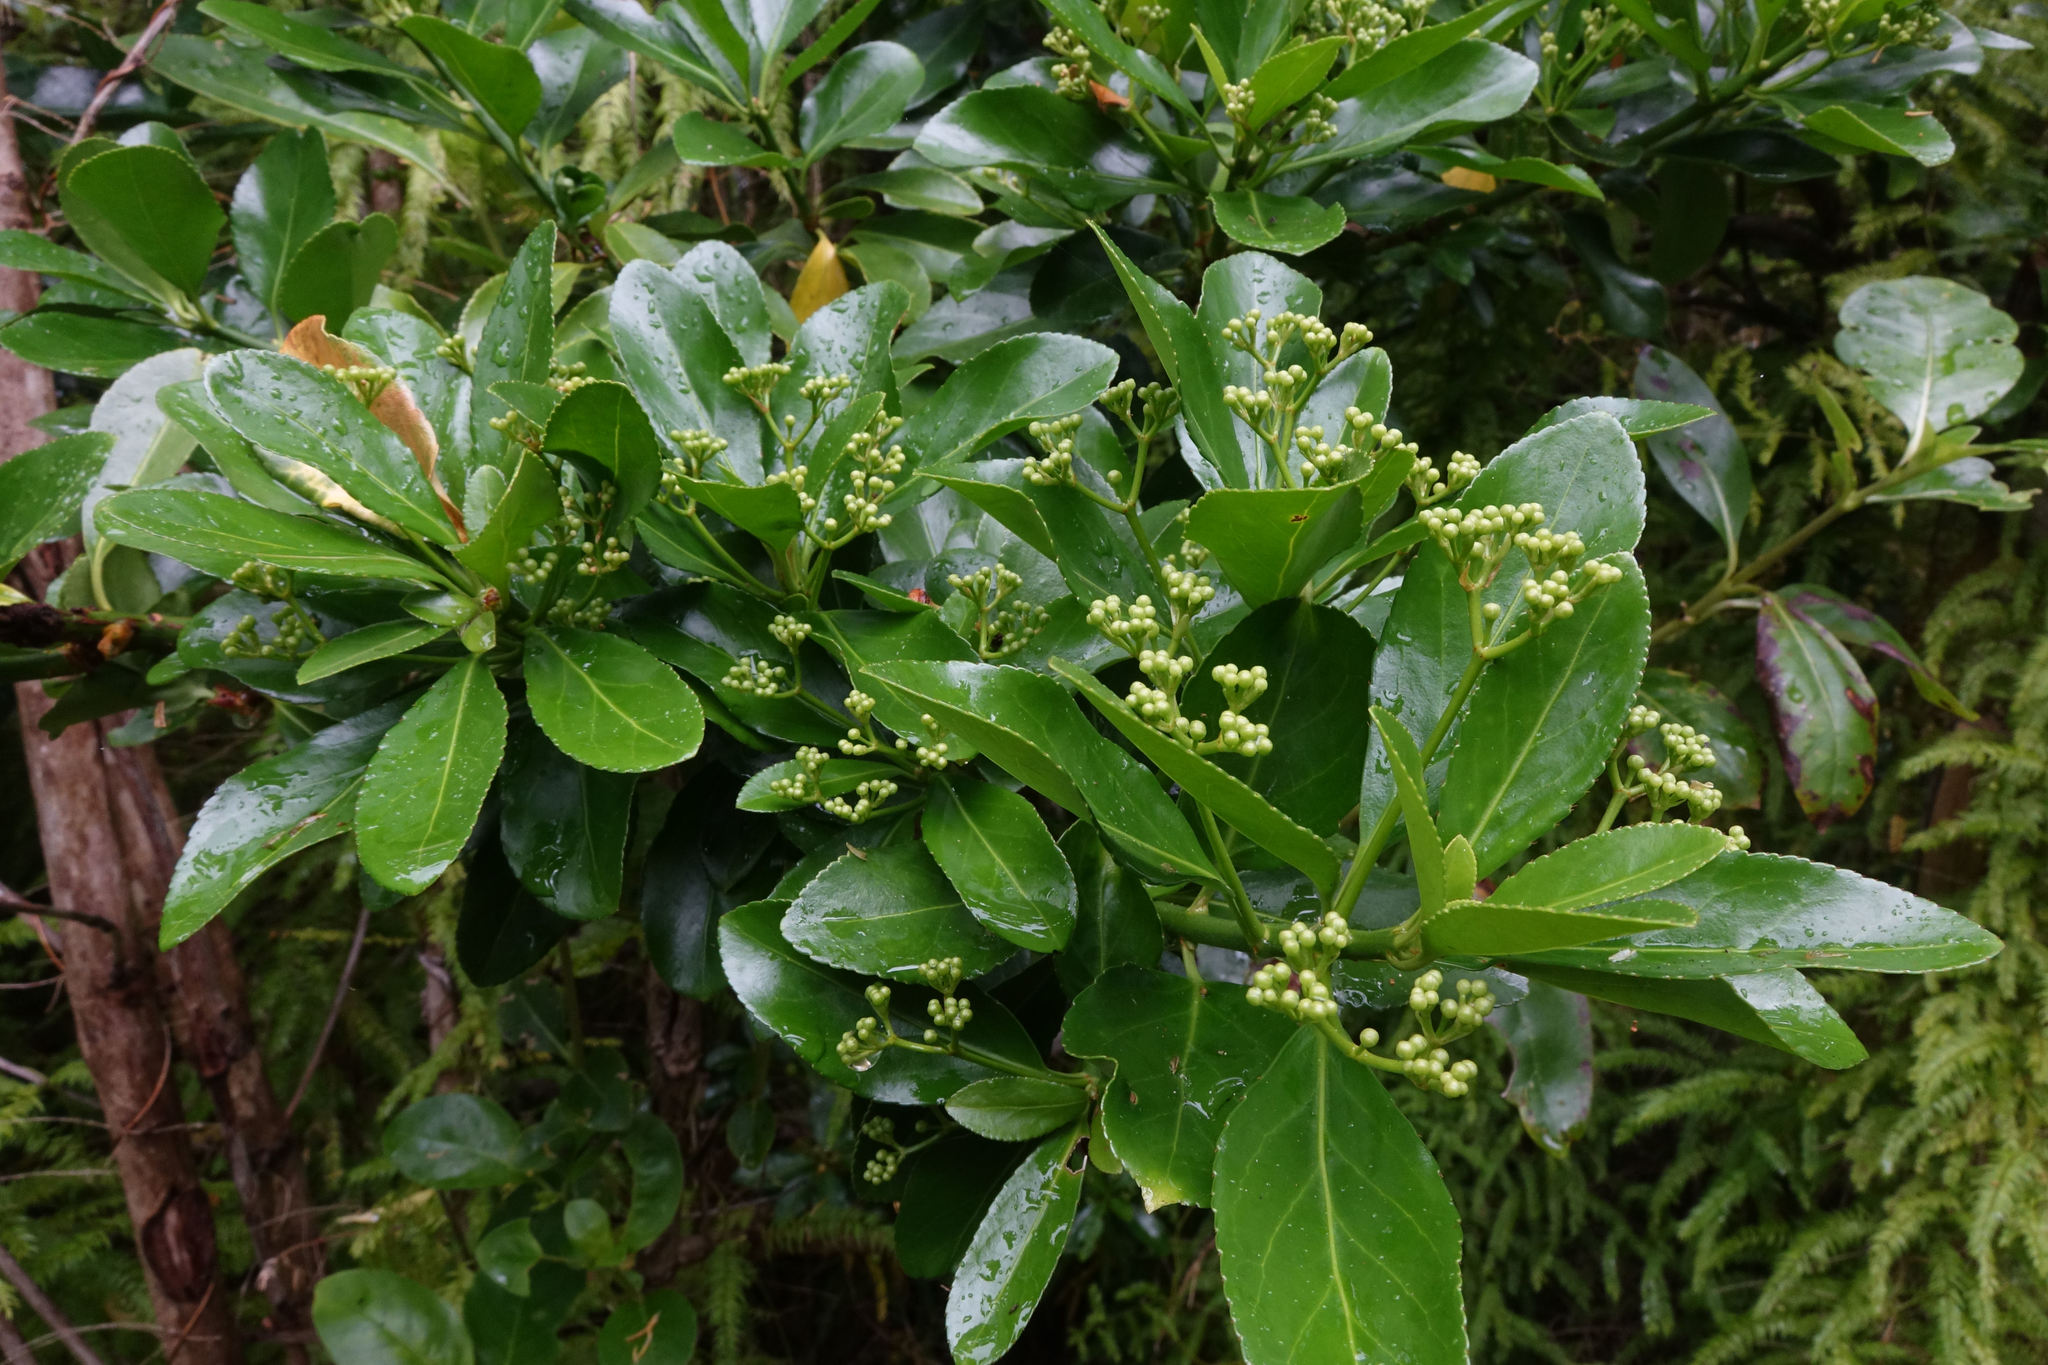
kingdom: Plantae
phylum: Tracheophyta
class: Magnoliopsida
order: Celastrales
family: Celastraceae
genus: Euonymus
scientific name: Euonymus japonicus
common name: Japanese spindletree
